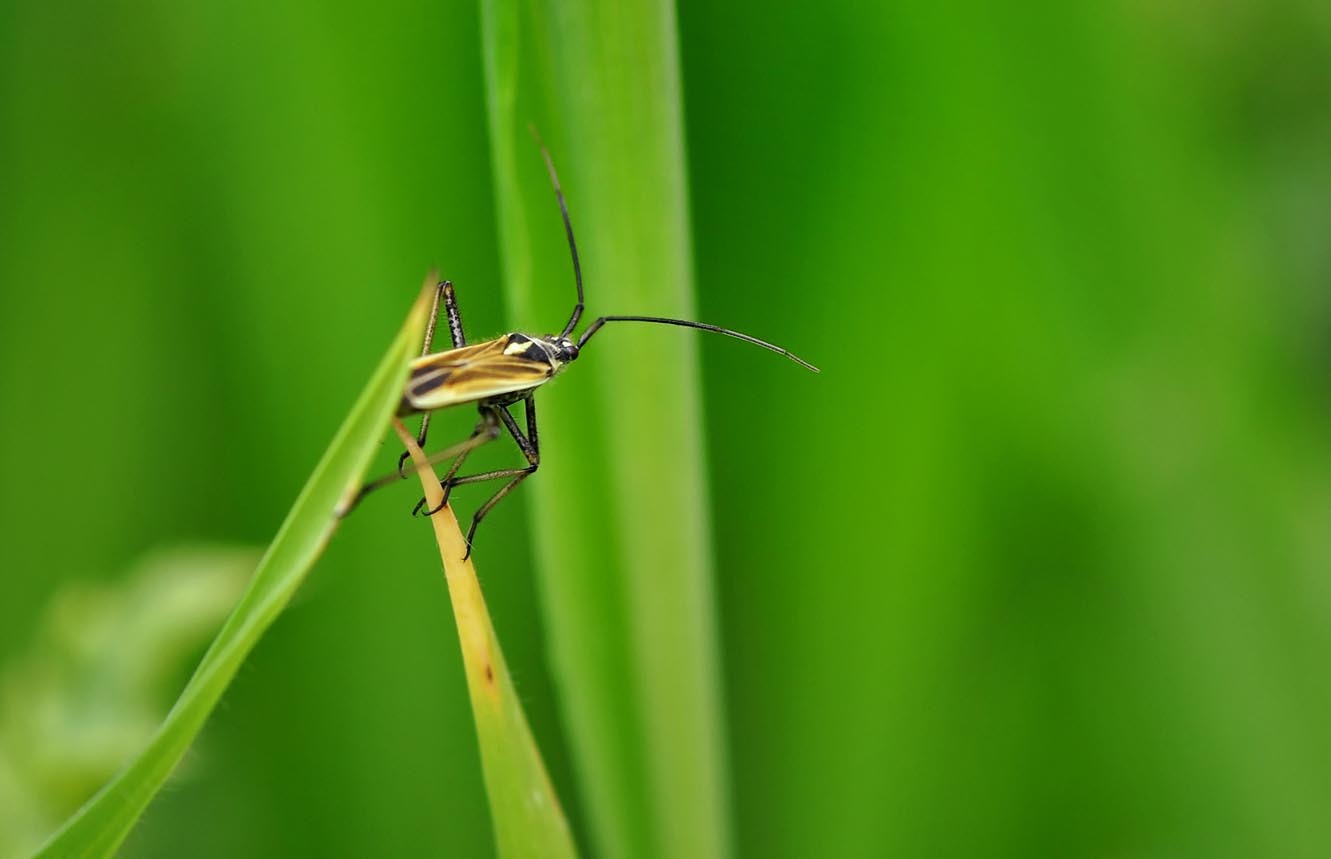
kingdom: Animalia
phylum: Arthropoda
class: Insecta
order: Hemiptera
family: Miridae
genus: Leptopterna
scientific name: Leptopterna dolabrata
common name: Meadow plant bug
